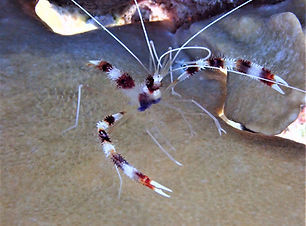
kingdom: Animalia
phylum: Arthropoda
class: Malacostraca
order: Decapoda
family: Stenopodidae
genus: Stenopus
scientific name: Stenopus hispidus
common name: Banded coral shrimp
